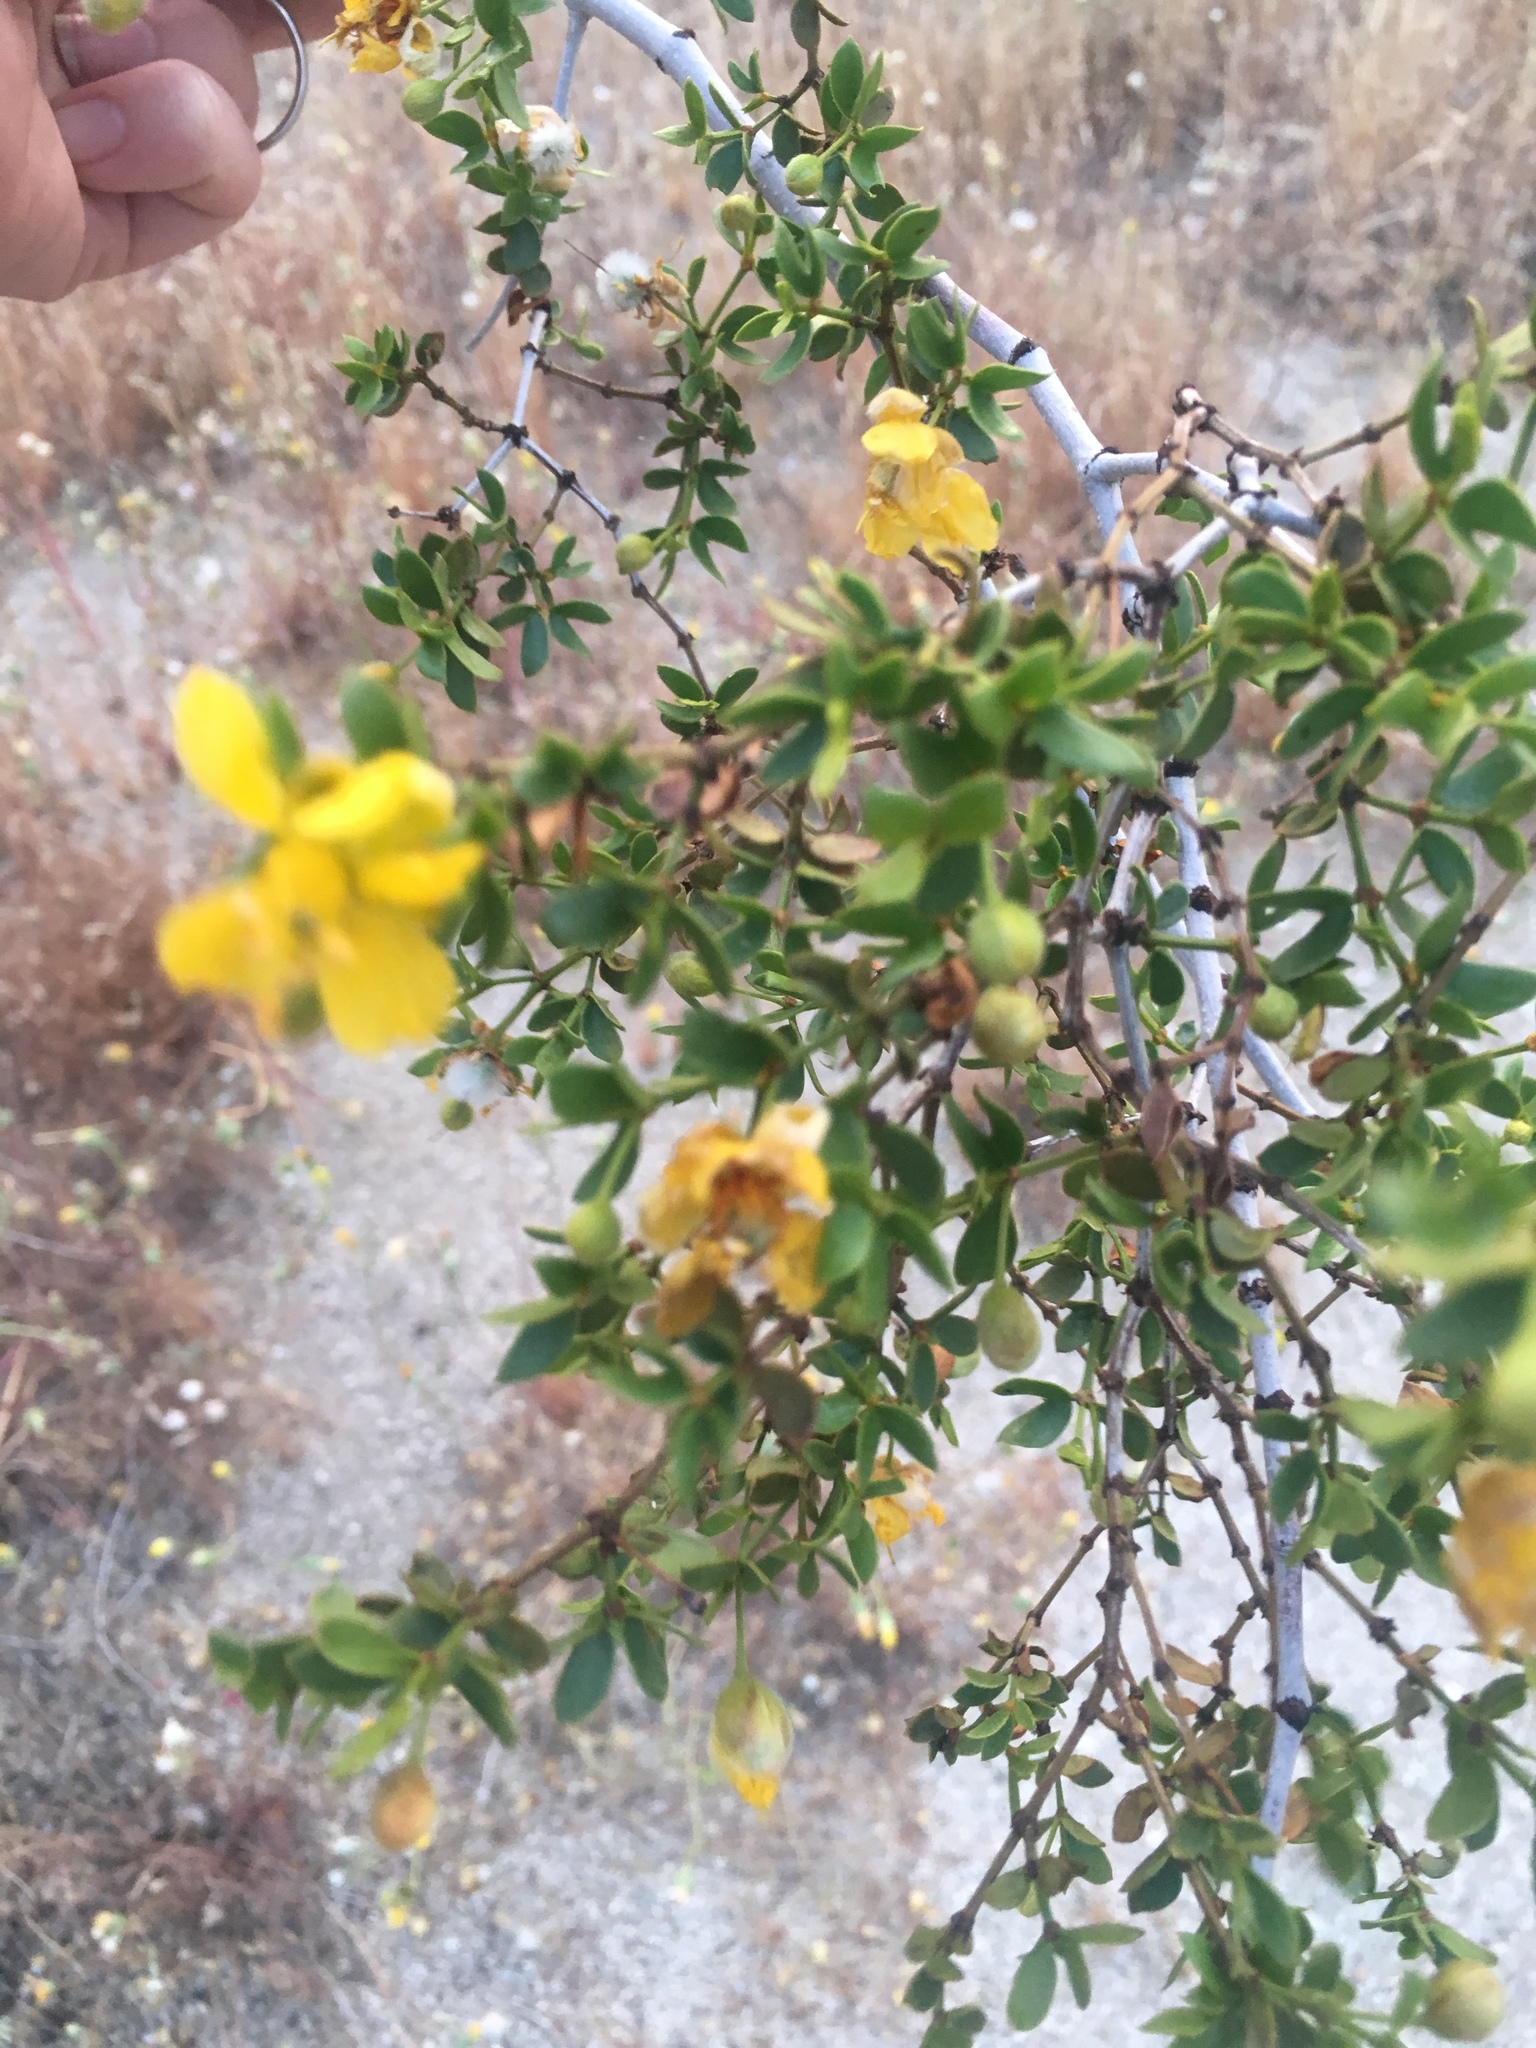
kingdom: Plantae
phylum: Tracheophyta
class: Magnoliopsida
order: Zygophyllales
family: Zygophyllaceae
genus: Larrea
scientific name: Larrea tridentata
